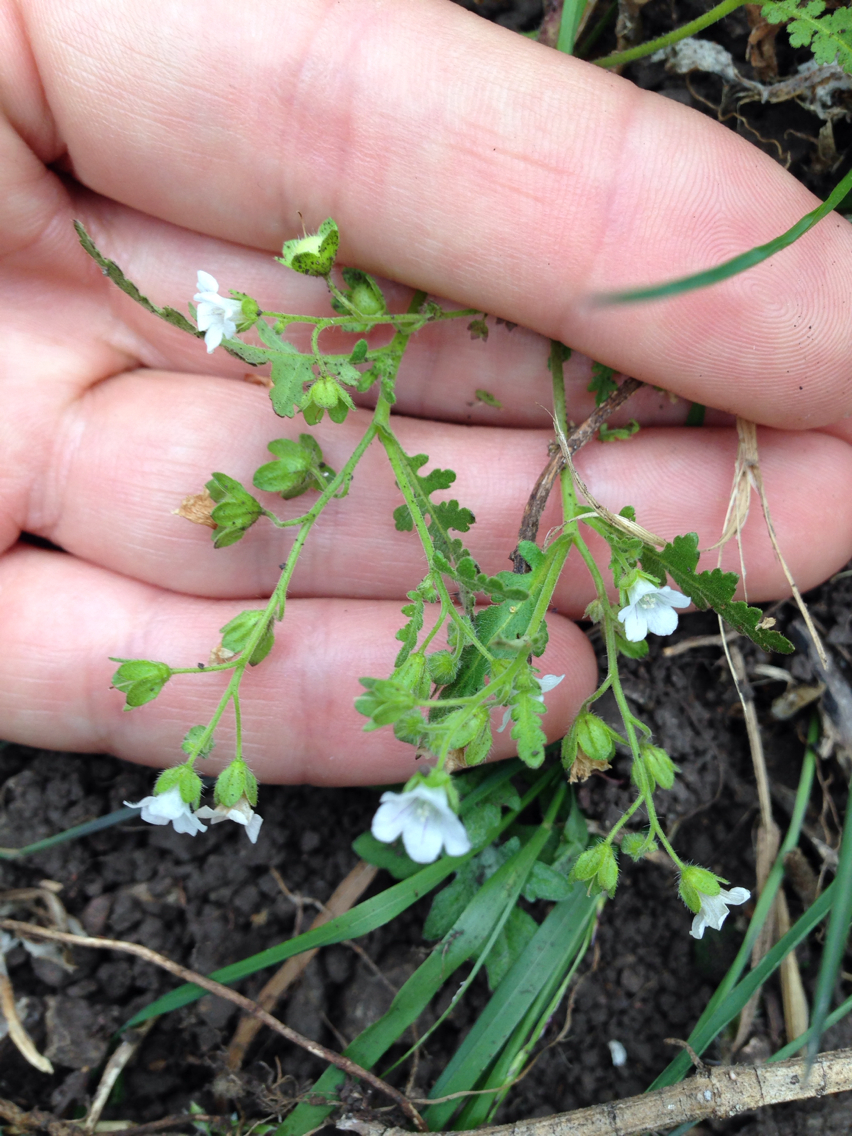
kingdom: Plantae
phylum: Tracheophyta
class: Magnoliopsida
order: Boraginales
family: Hydrophyllaceae
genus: Eucrypta
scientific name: Eucrypta chrysanthemifolia
